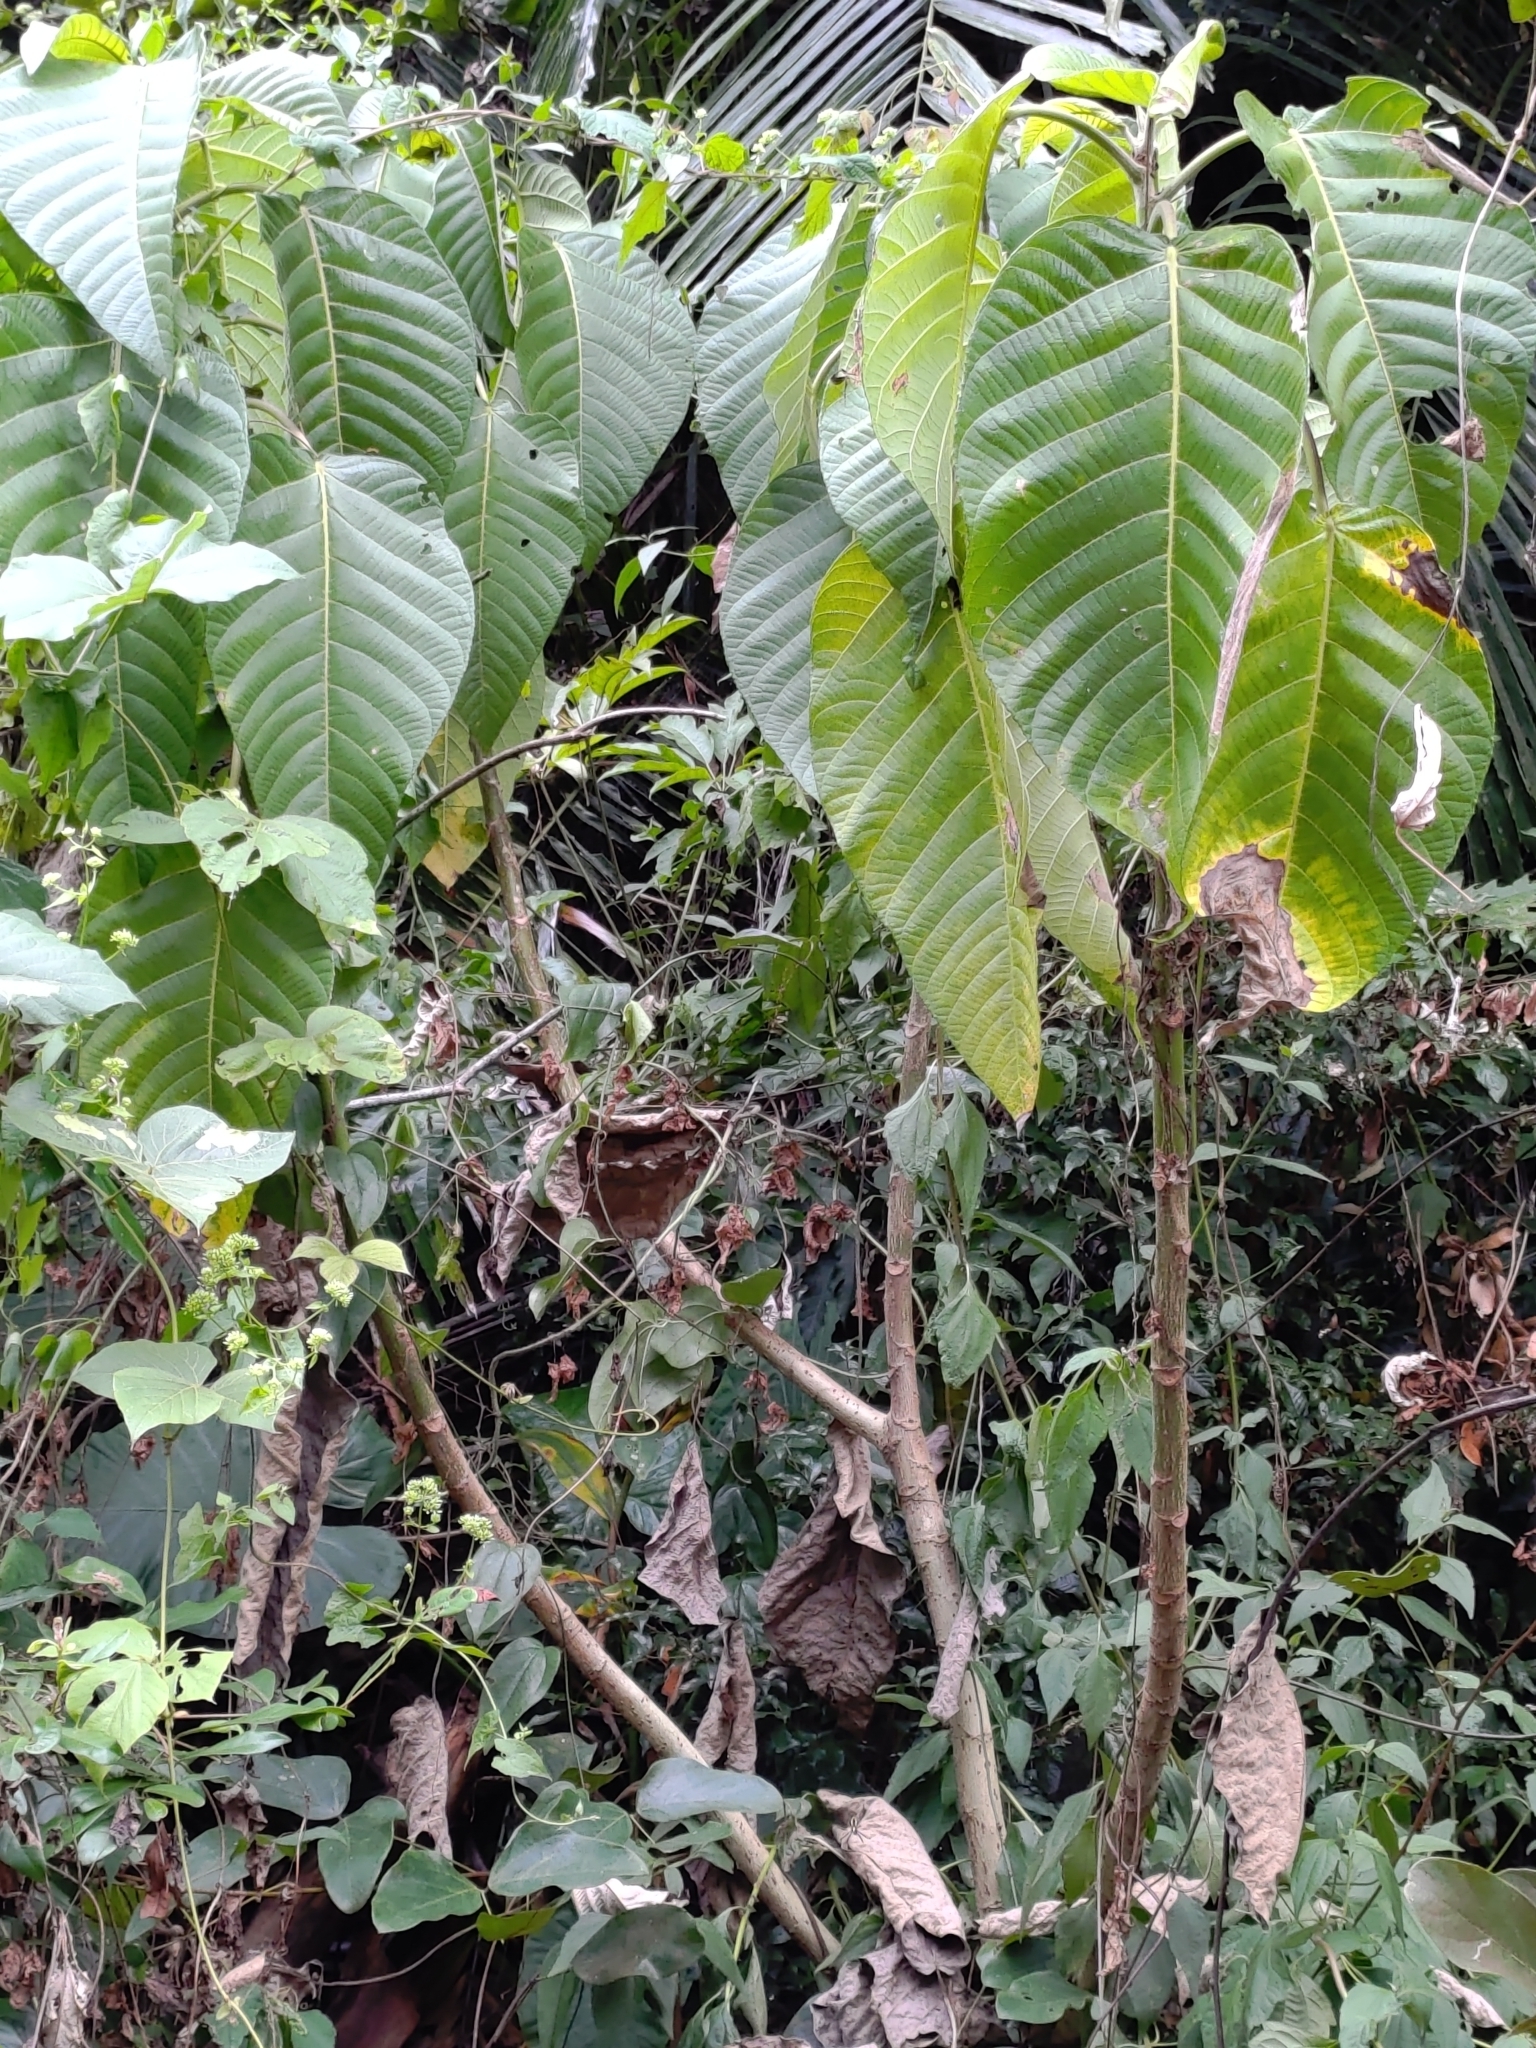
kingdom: Plantae
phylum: Tracheophyta
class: Magnoliopsida
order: Rosales
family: Urticaceae
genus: Dendrocnide
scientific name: Dendrocnide meyeniana
